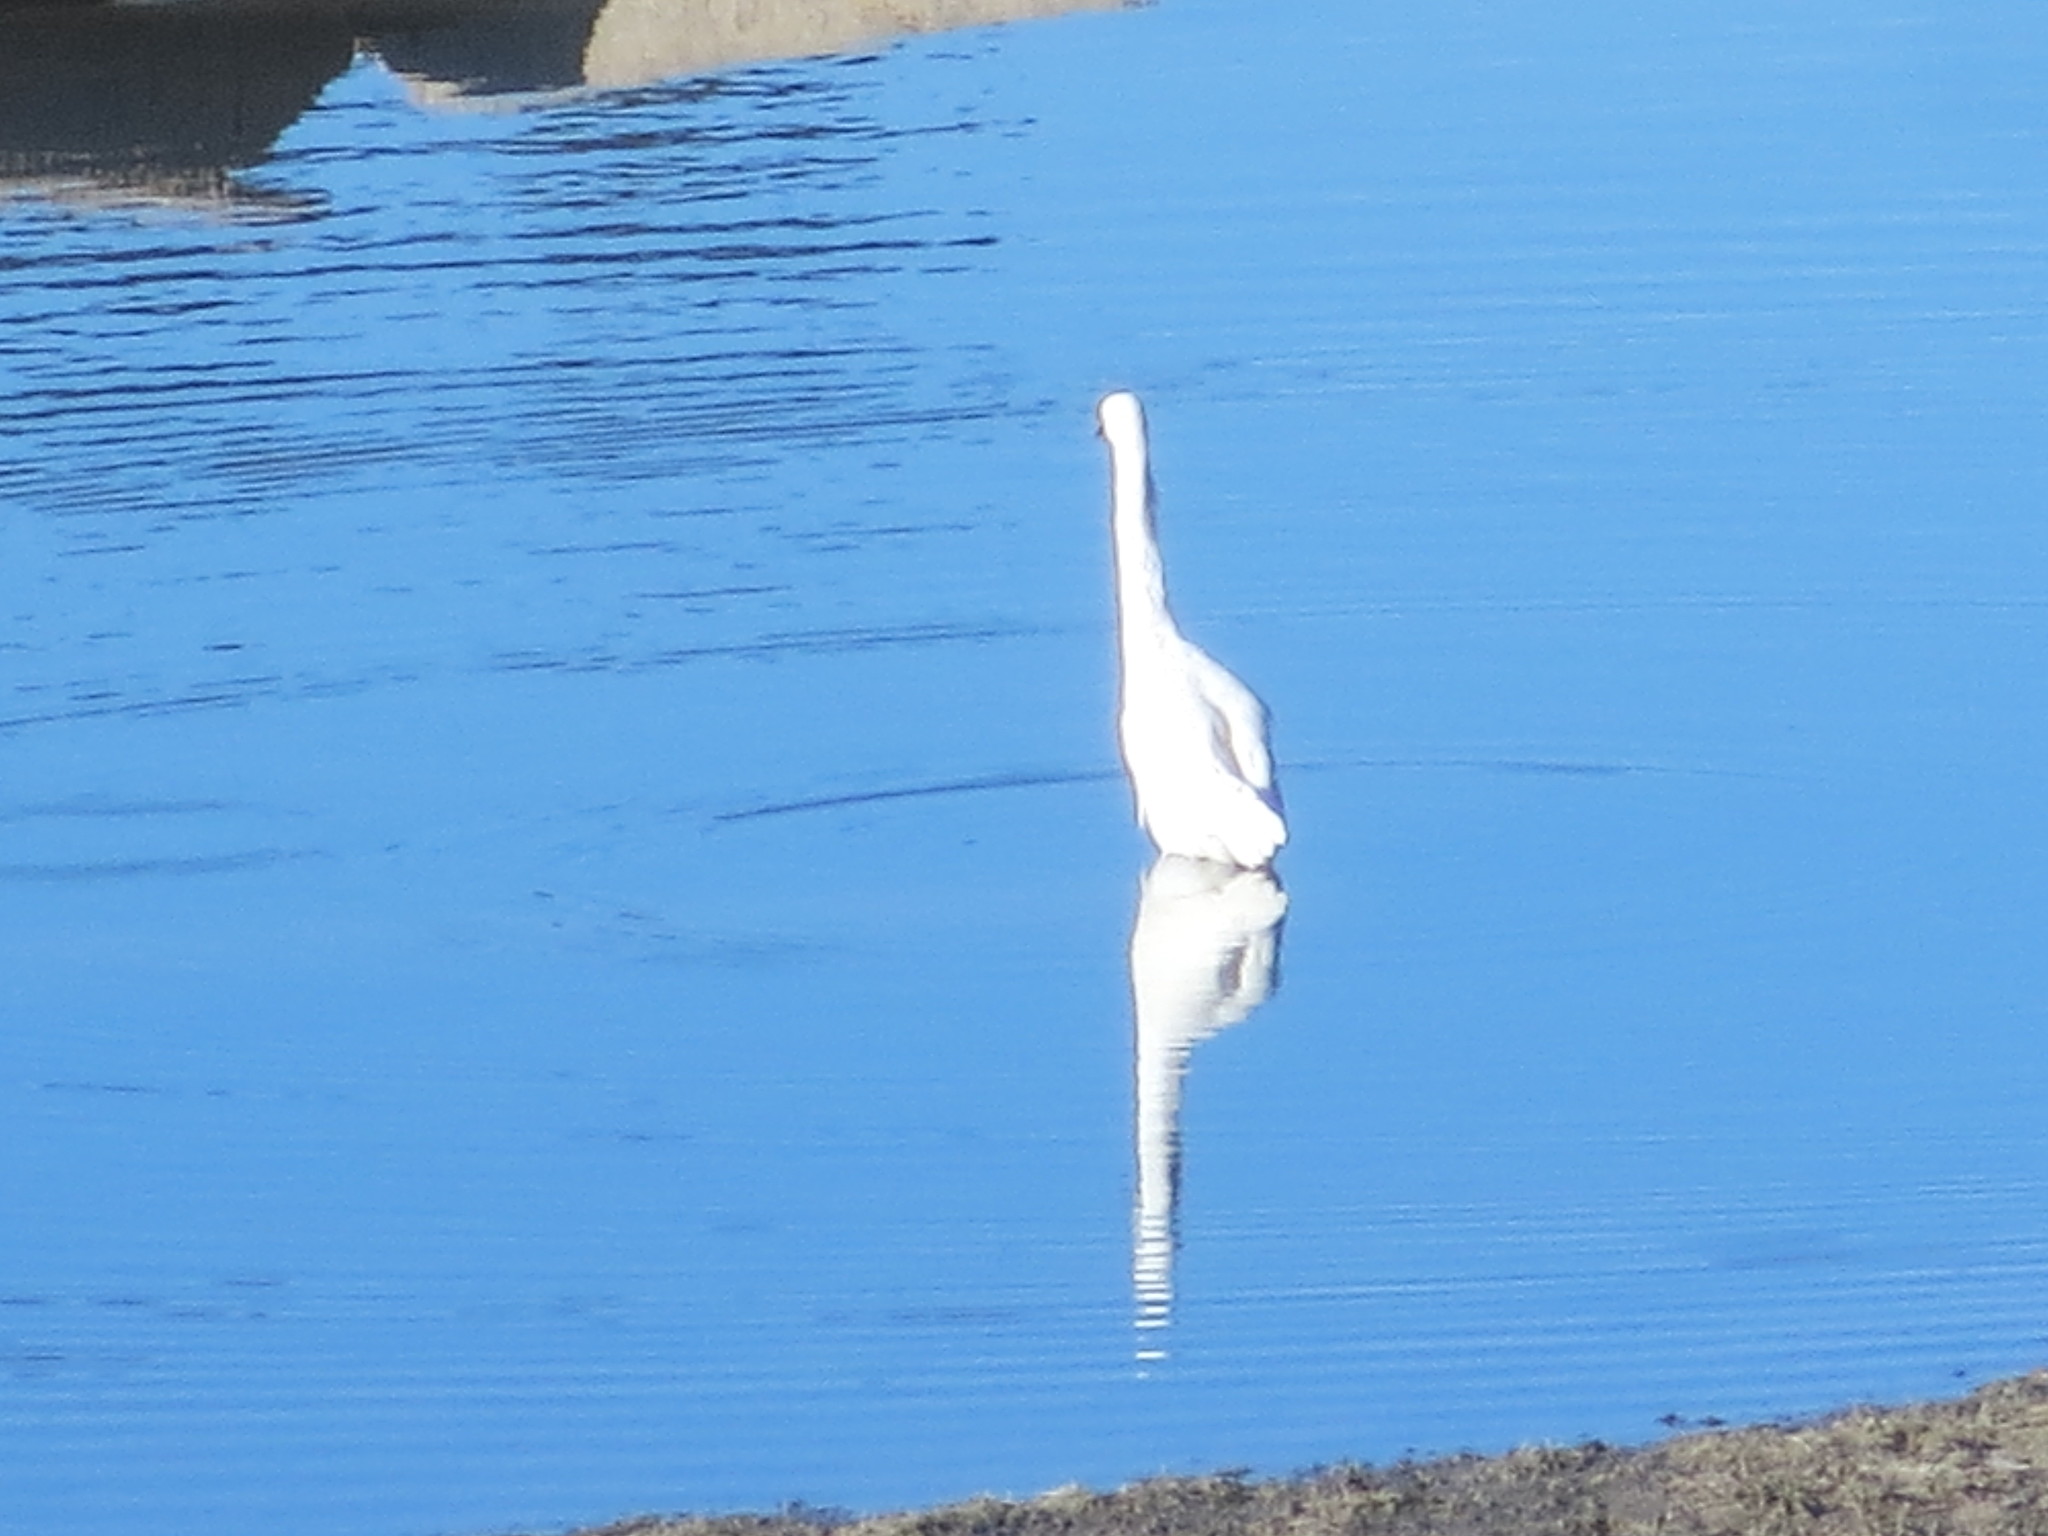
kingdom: Animalia
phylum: Chordata
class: Aves
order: Pelecaniformes
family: Ardeidae
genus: Ardea
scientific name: Ardea alba
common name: Great egret
